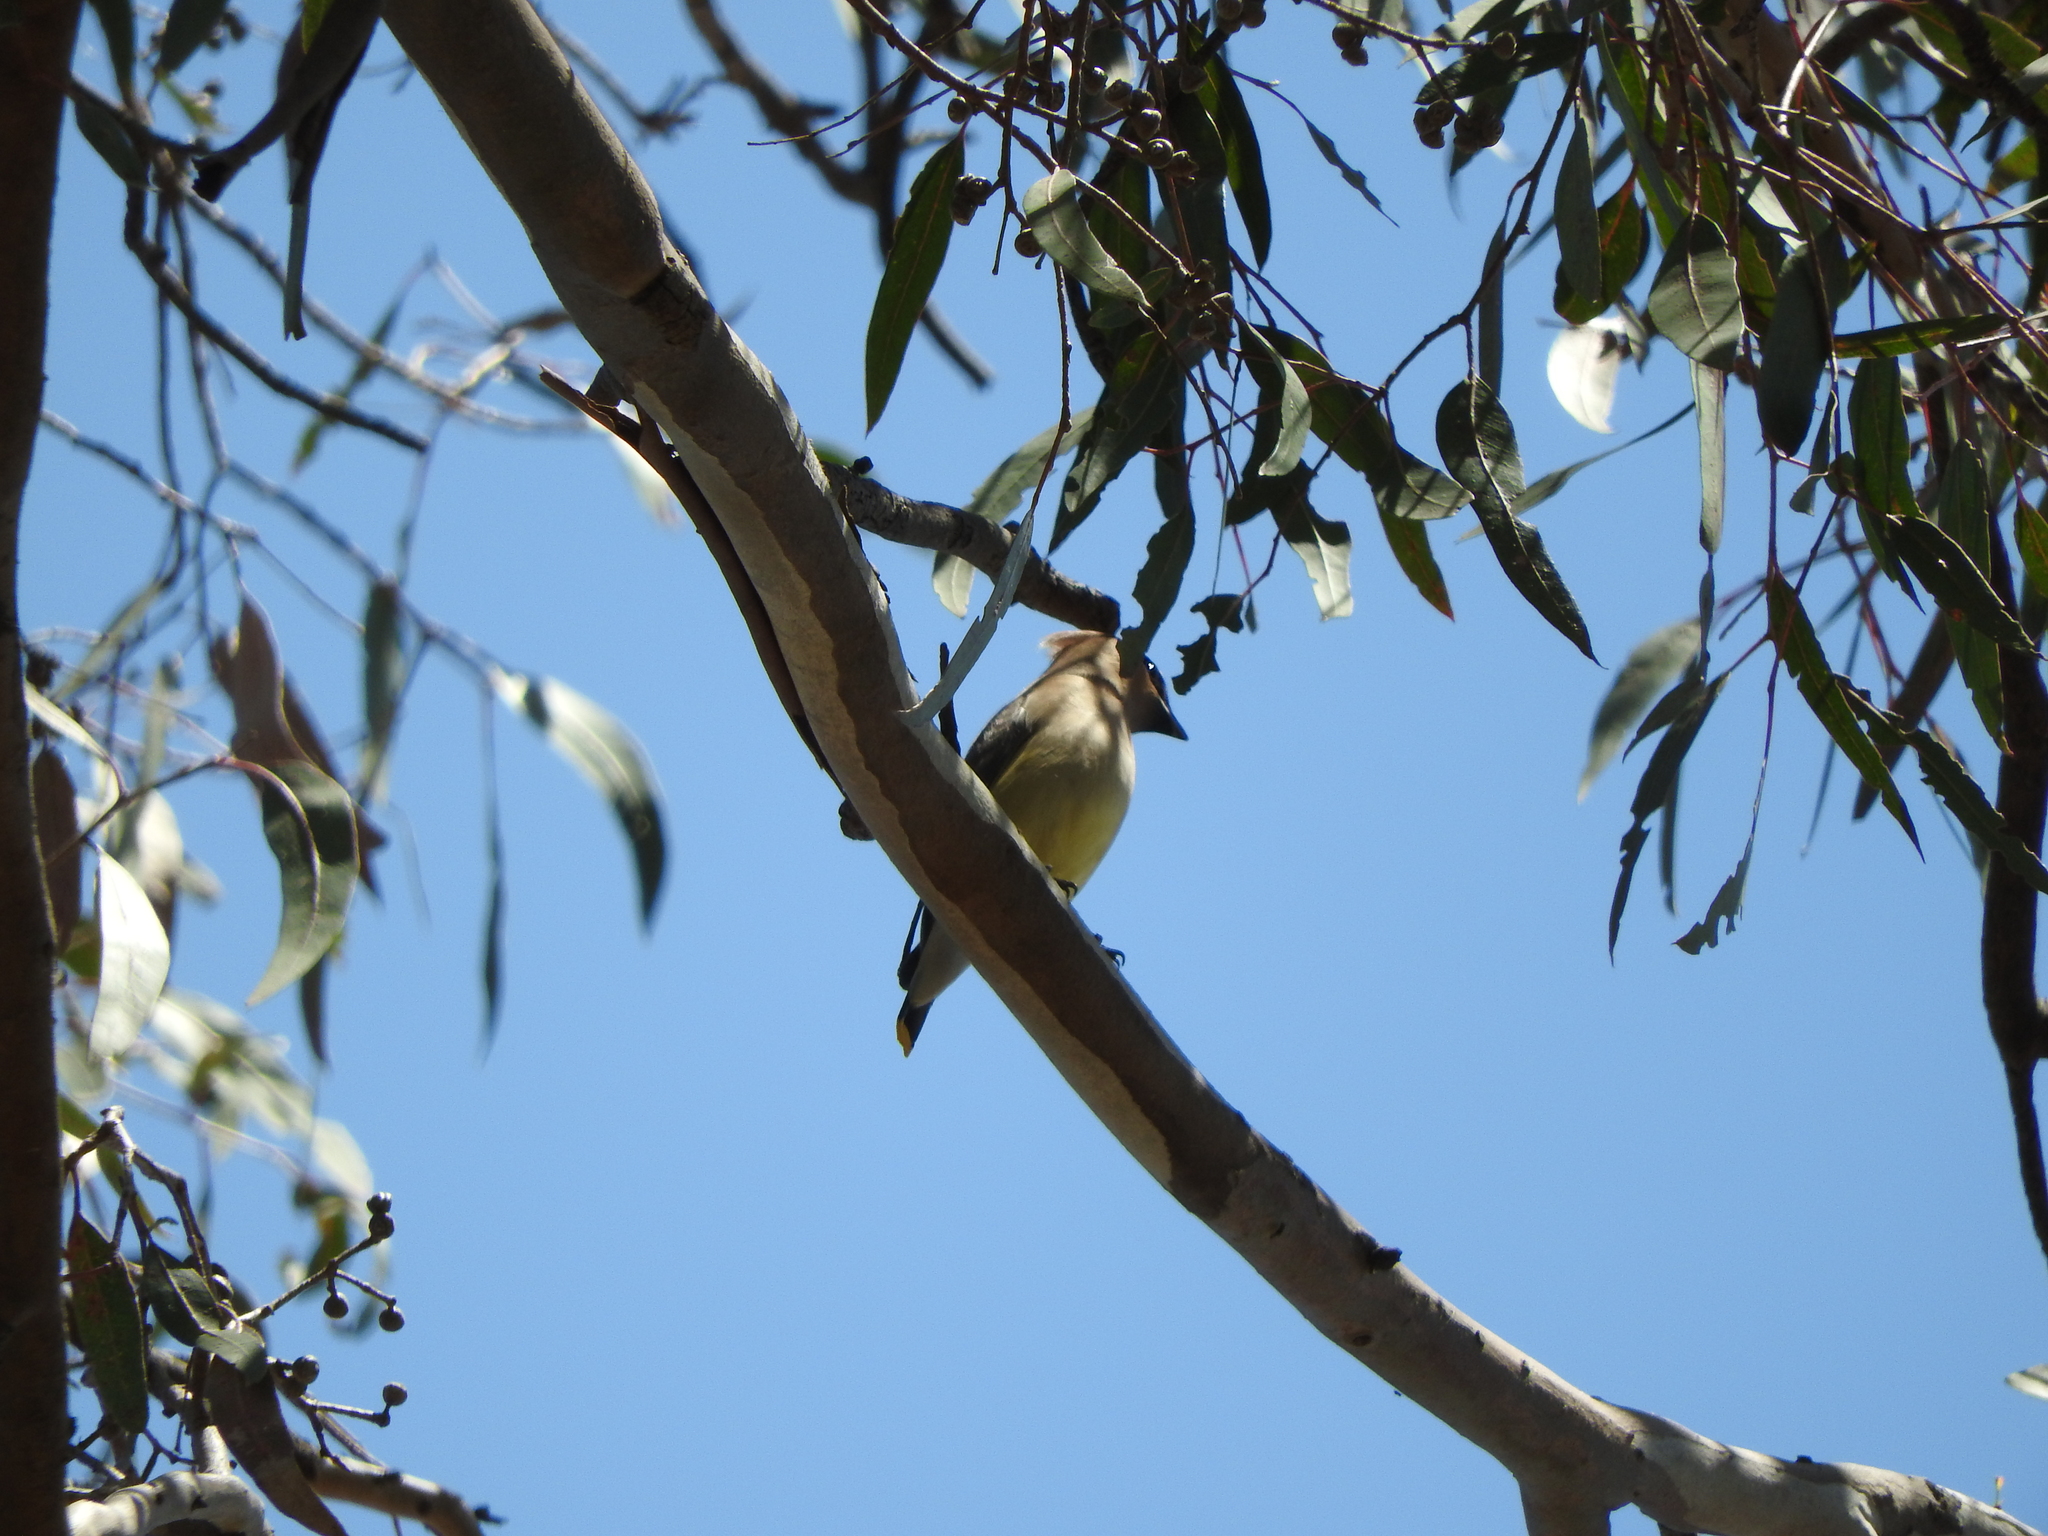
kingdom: Animalia
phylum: Chordata
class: Aves
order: Passeriformes
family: Bombycillidae
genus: Bombycilla
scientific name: Bombycilla cedrorum
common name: Cedar waxwing
